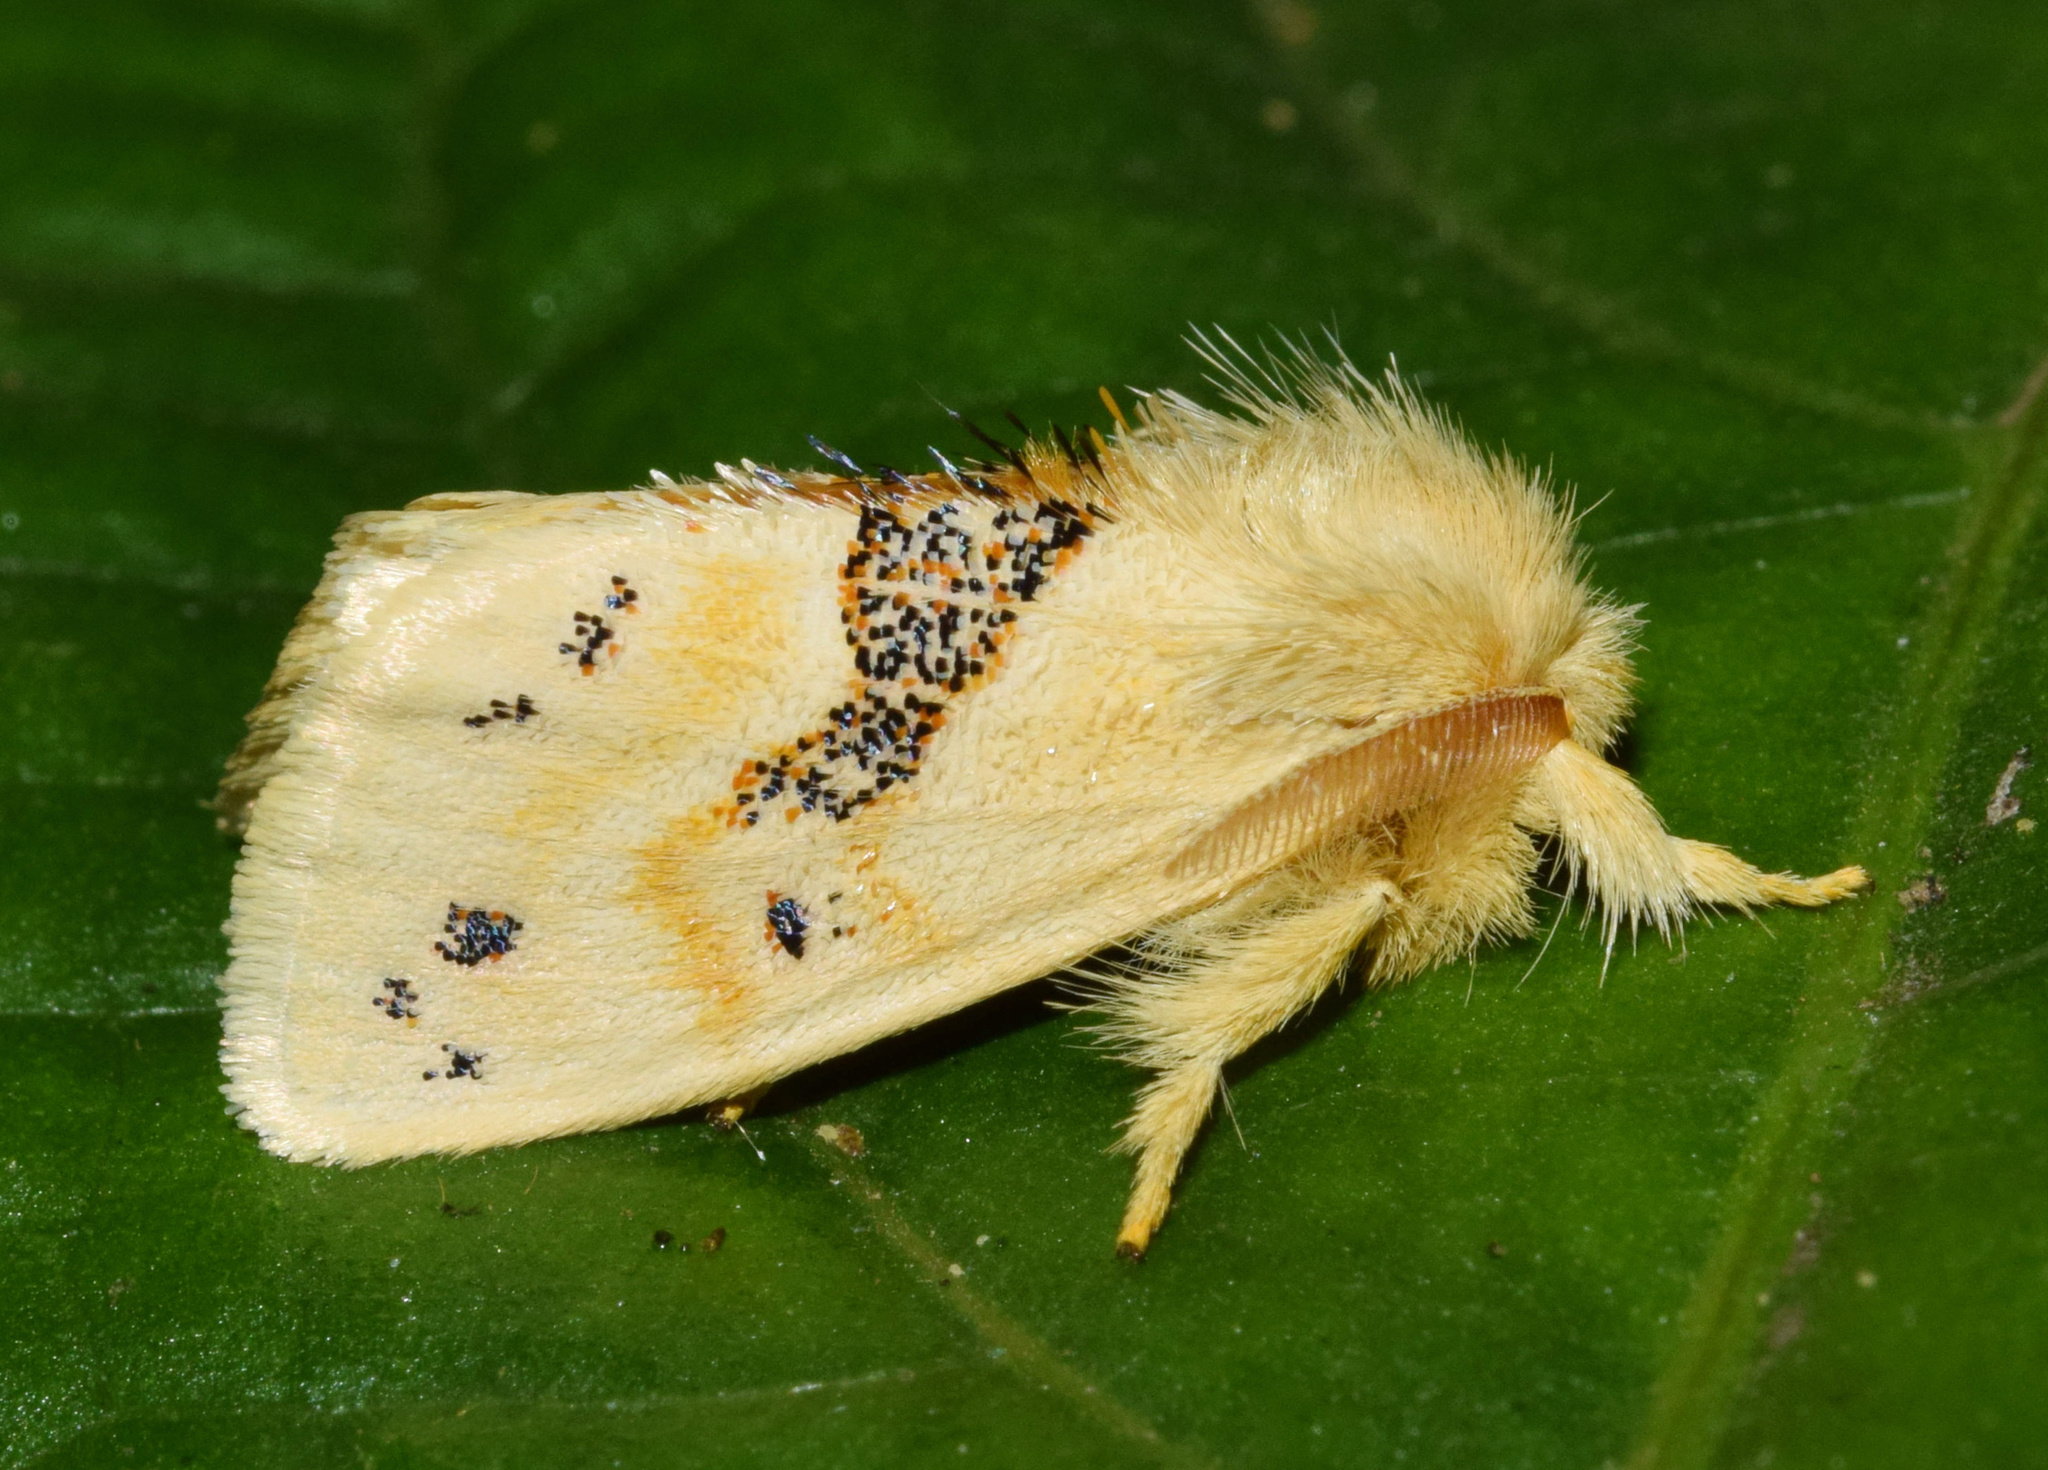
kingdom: Animalia
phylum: Arthropoda
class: Insecta
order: Lepidoptera
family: Erebidae
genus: Euproctis
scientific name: Euproctis Knappetra fasciata
